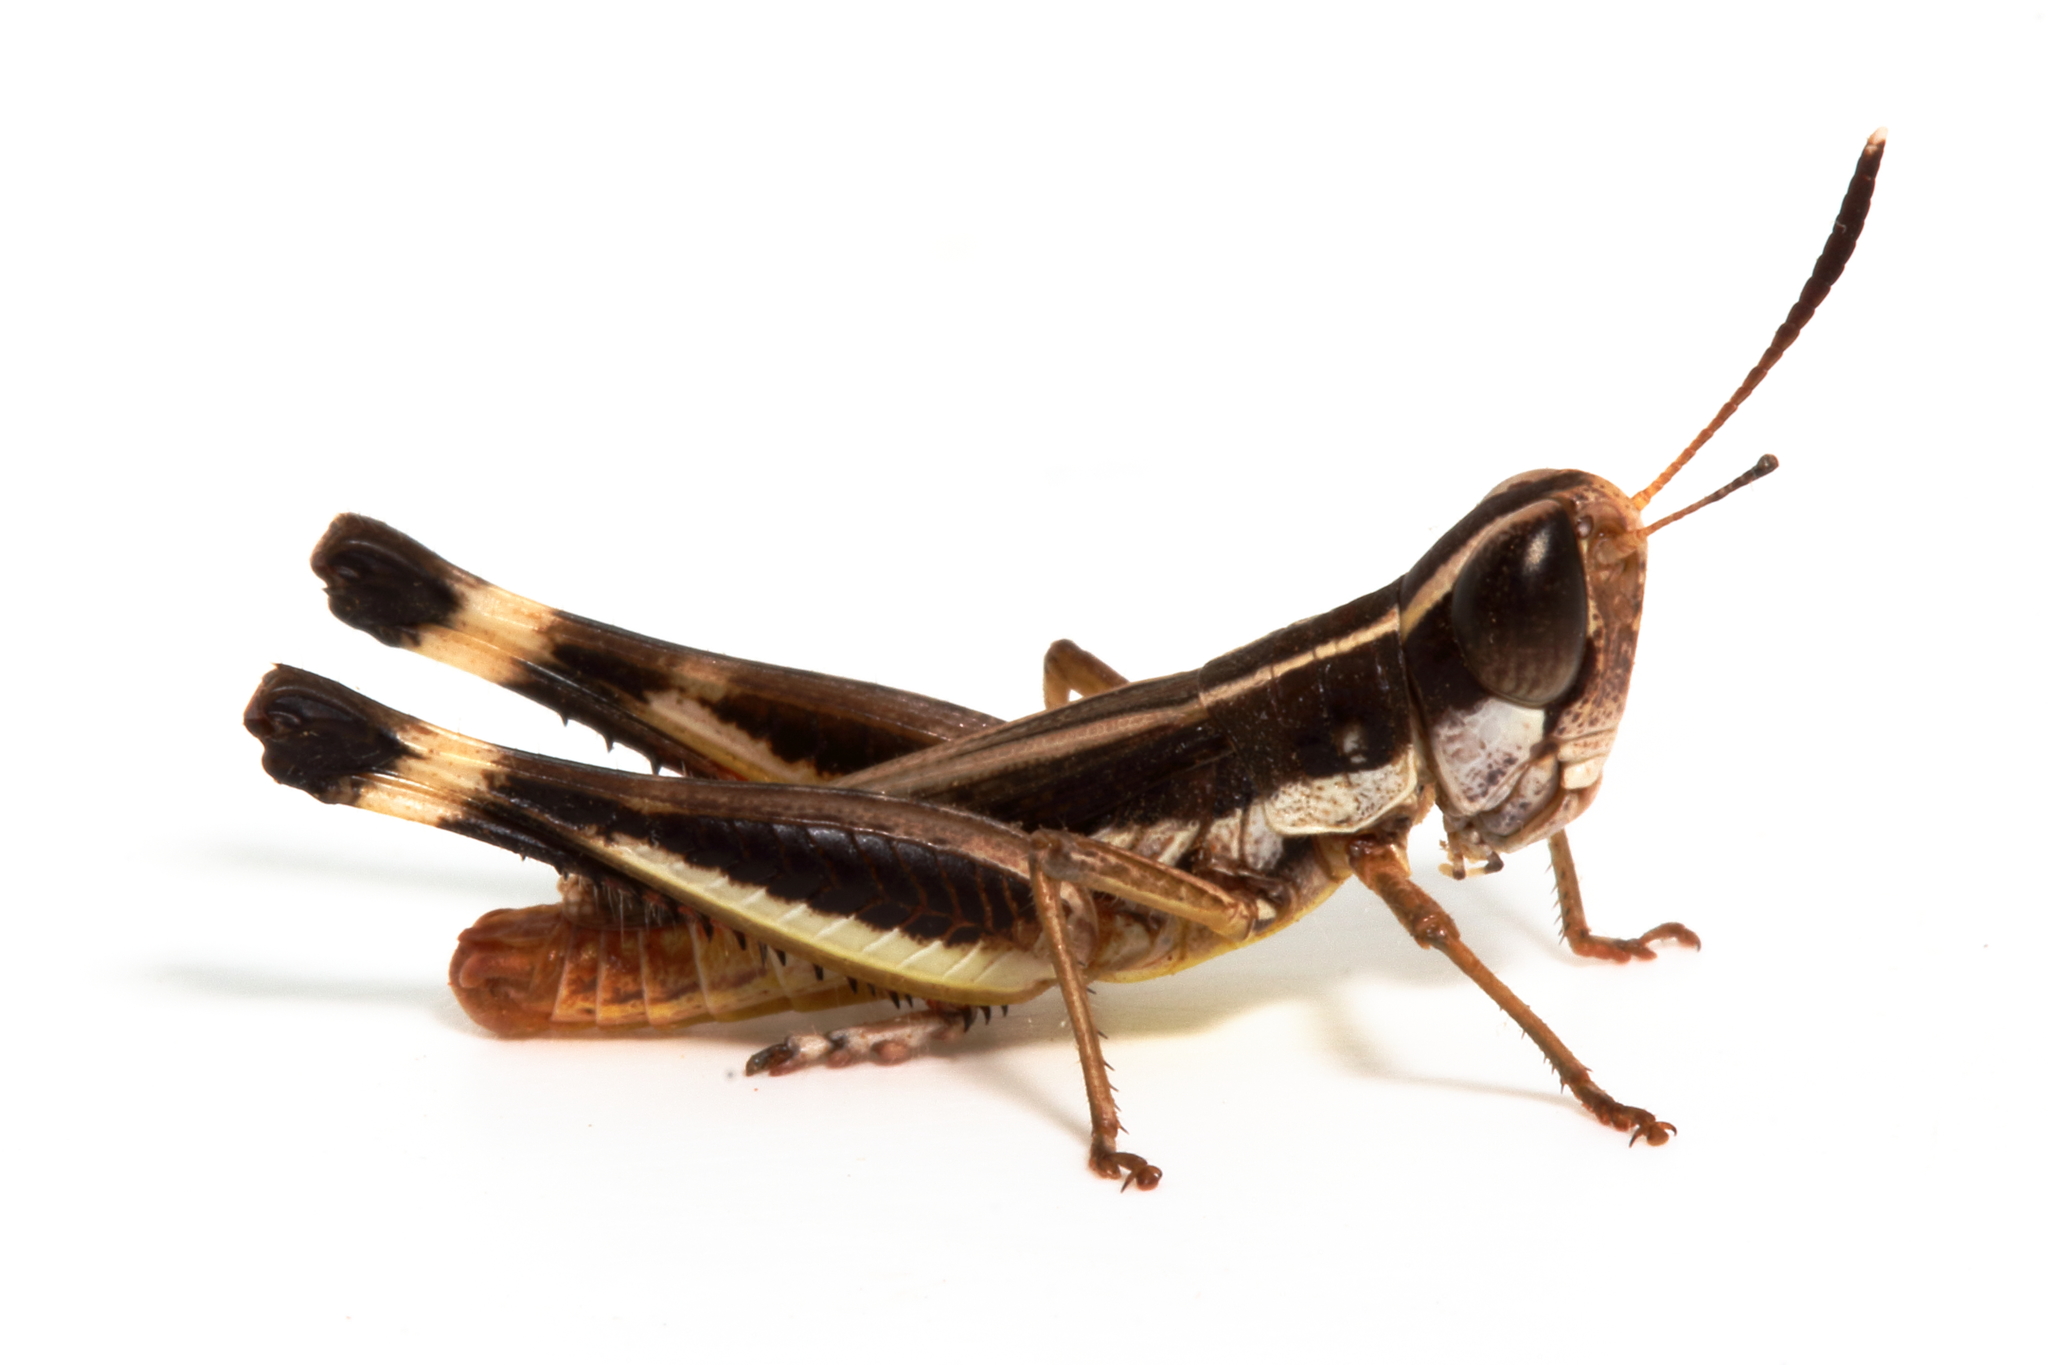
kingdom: Animalia
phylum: Arthropoda
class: Insecta
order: Orthoptera
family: Acrididae
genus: Macrotona
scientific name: Macrotona securiformis
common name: Inland macrotona
